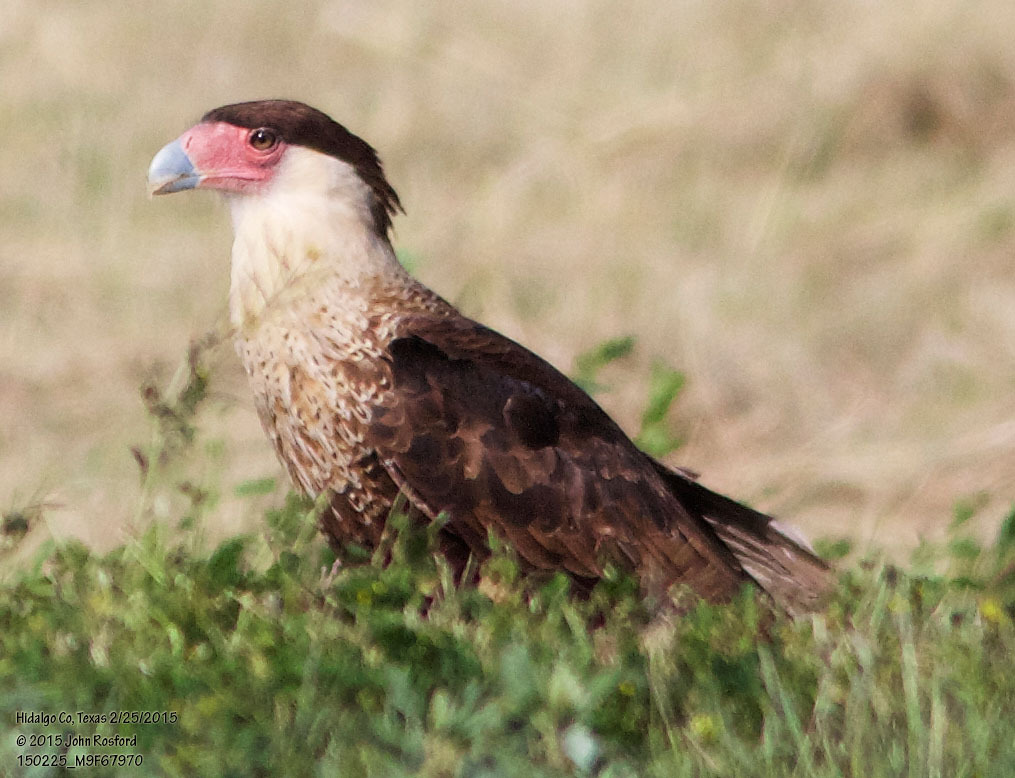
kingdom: Animalia
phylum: Chordata
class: Aves
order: Falconiformes
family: Falconidae
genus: Caracara
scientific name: Caracara plancus
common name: Southern caracara
